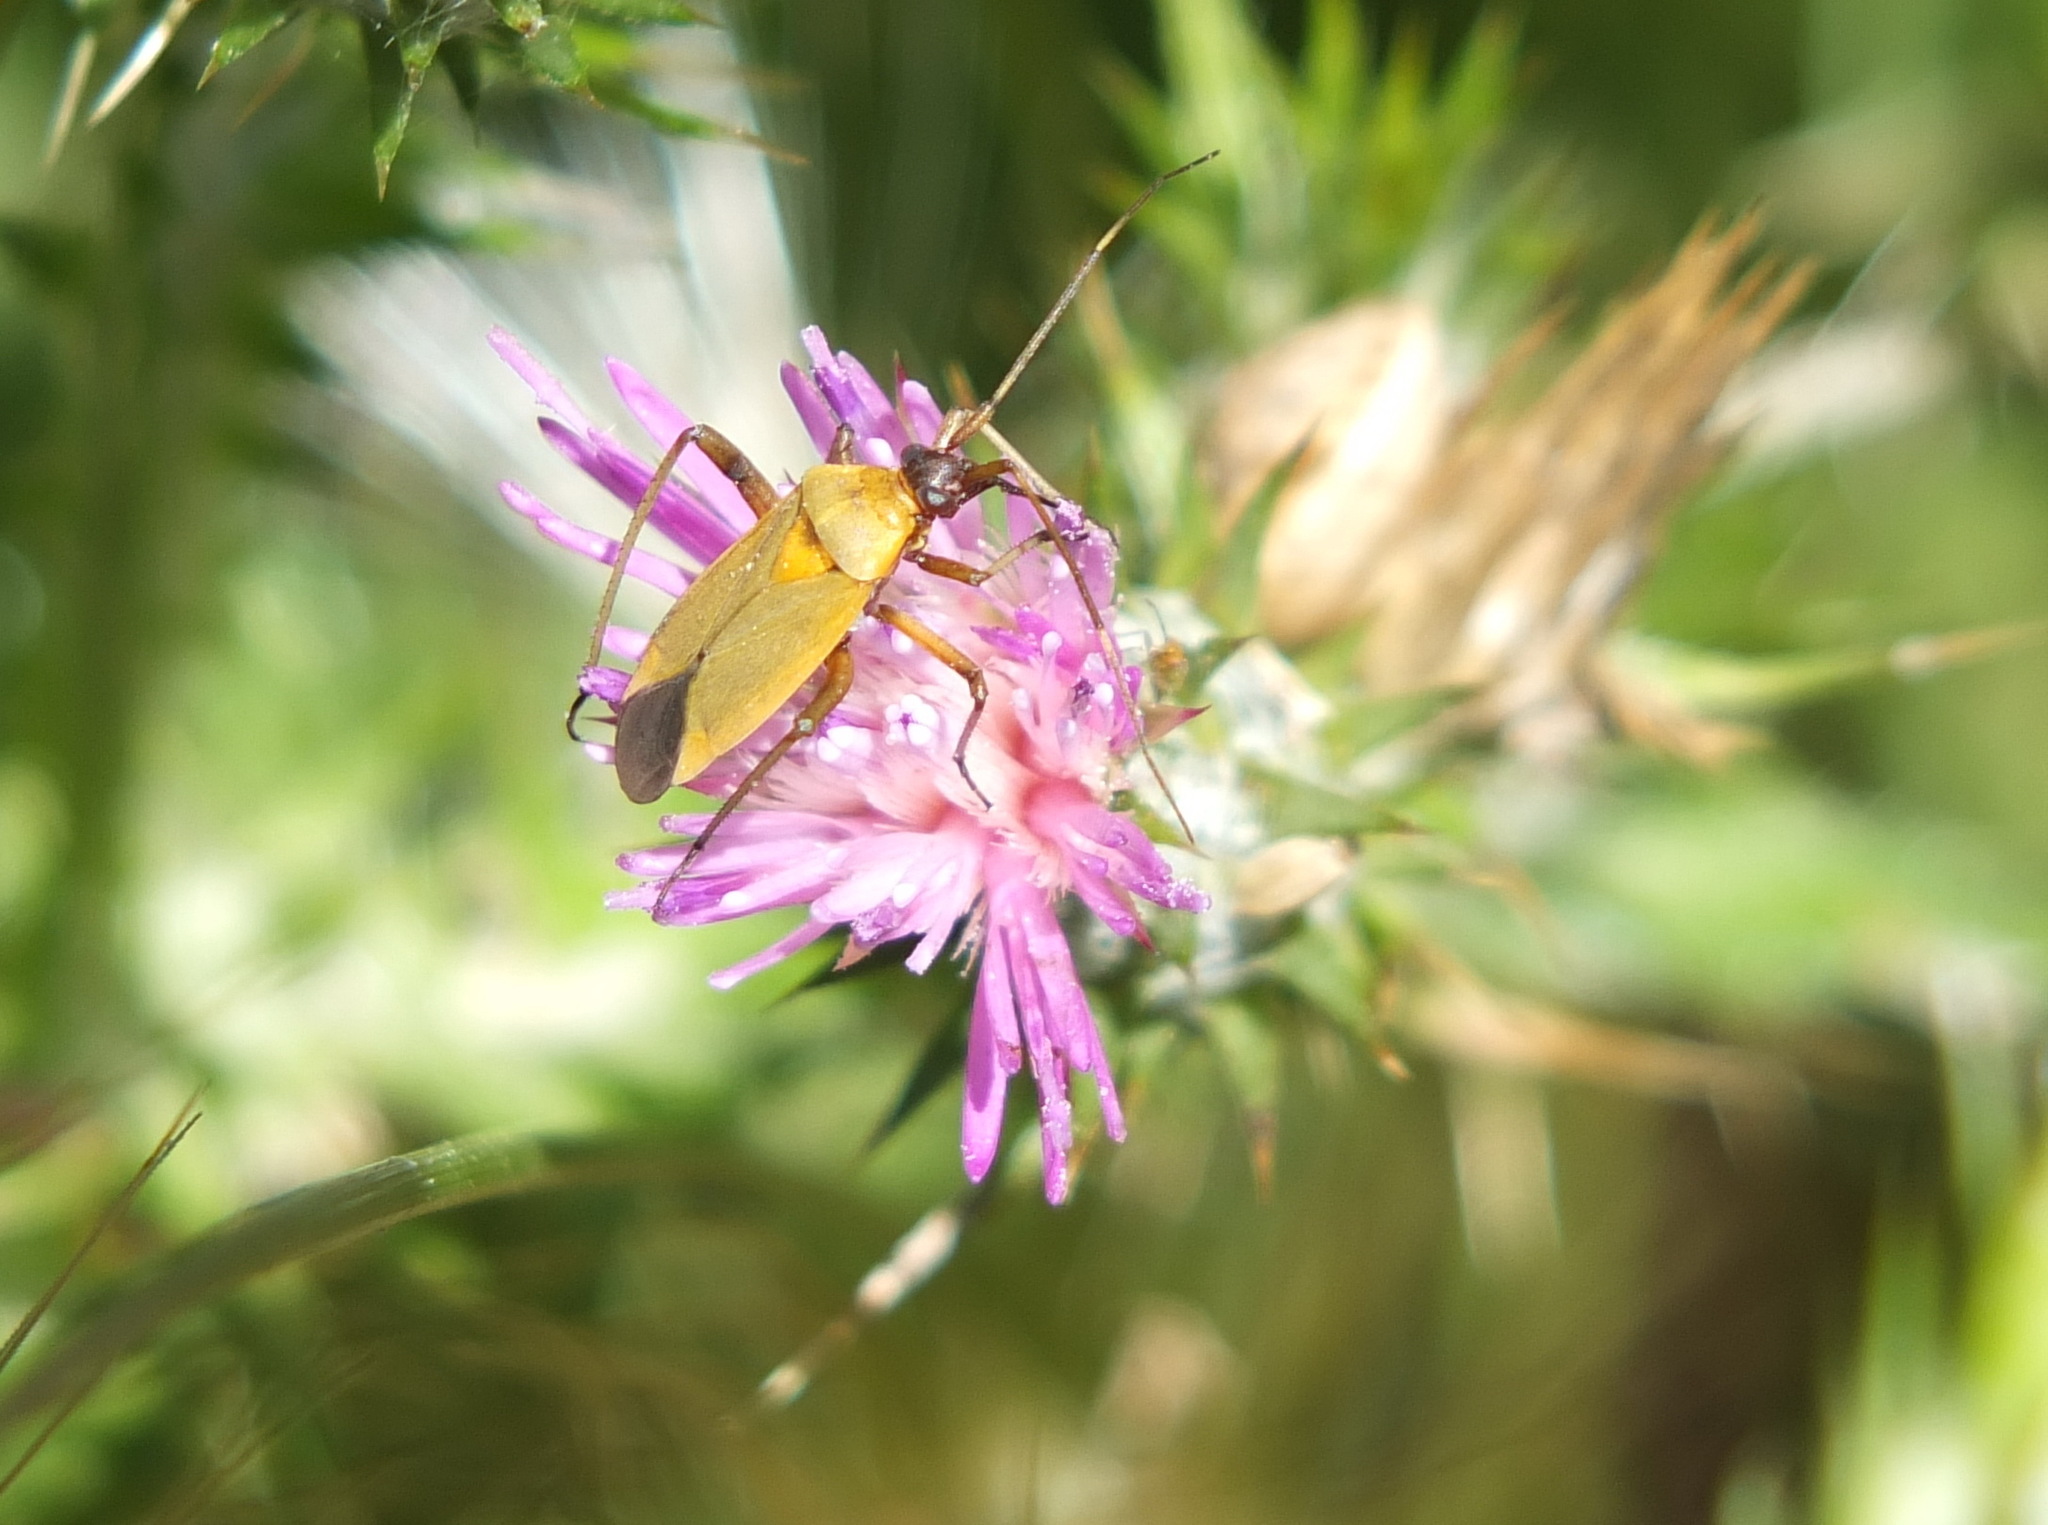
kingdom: Animalia
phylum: Arthropoda
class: Insecta
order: Hemiptera
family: Miridae
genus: Calocoris
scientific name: Calocoris nemoralis
